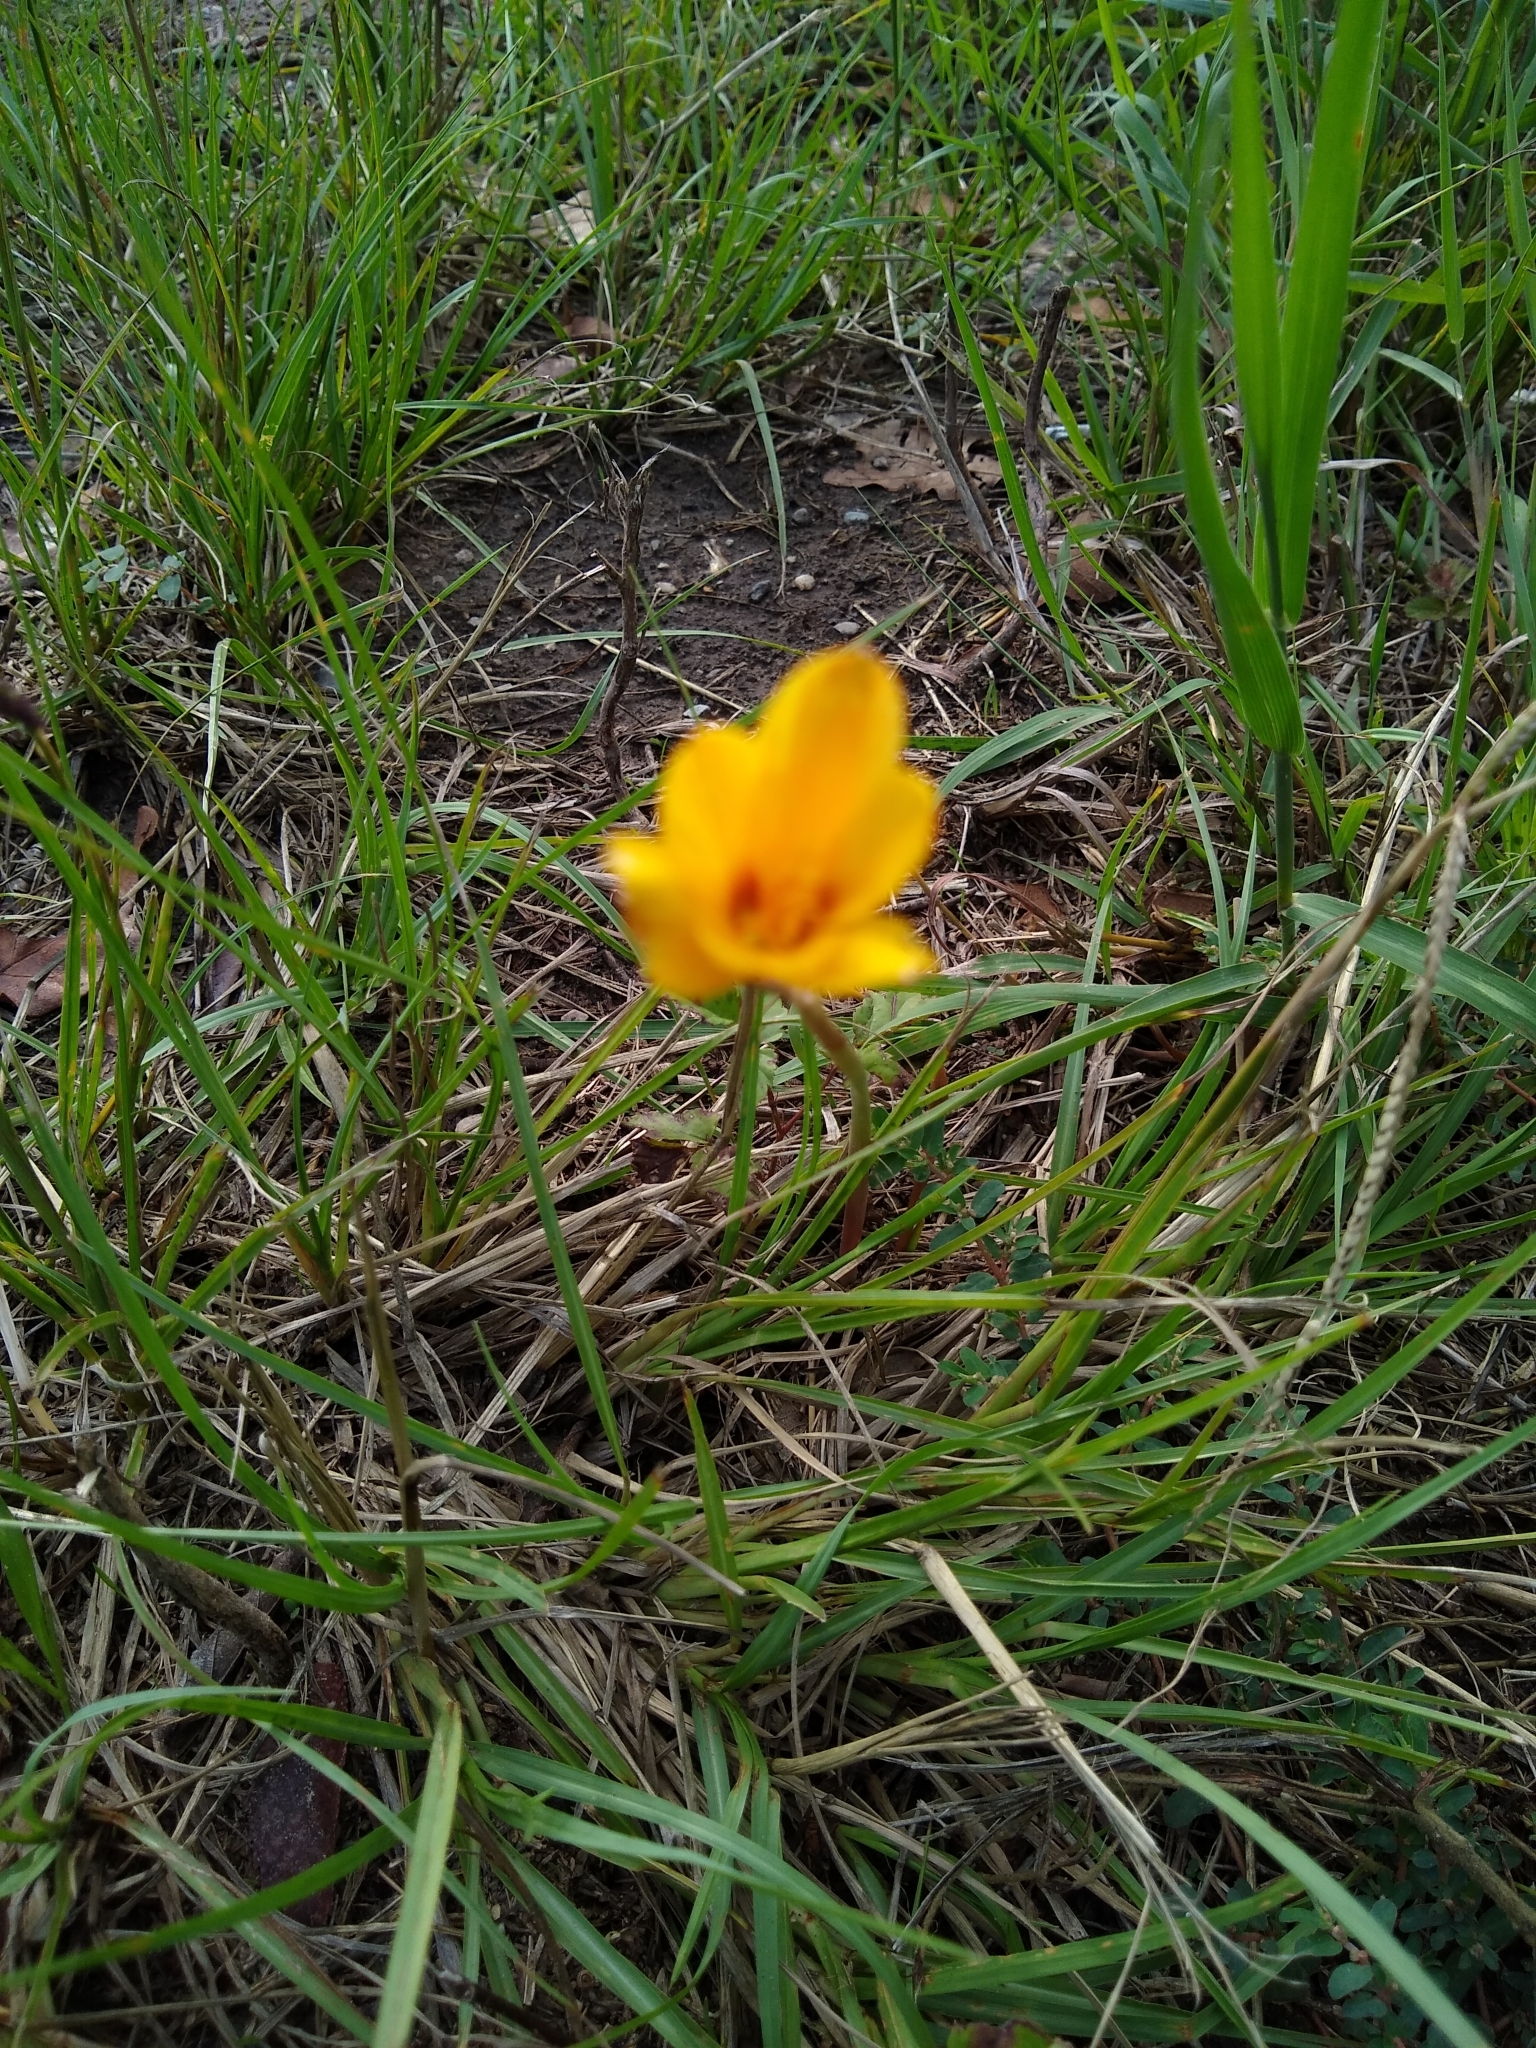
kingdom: Plantae
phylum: Tracheophyta
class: Liliopsida
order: Asparagales
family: Amaryllidaceae
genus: Zephyranthes
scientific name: Zephyranthes tubispatha
